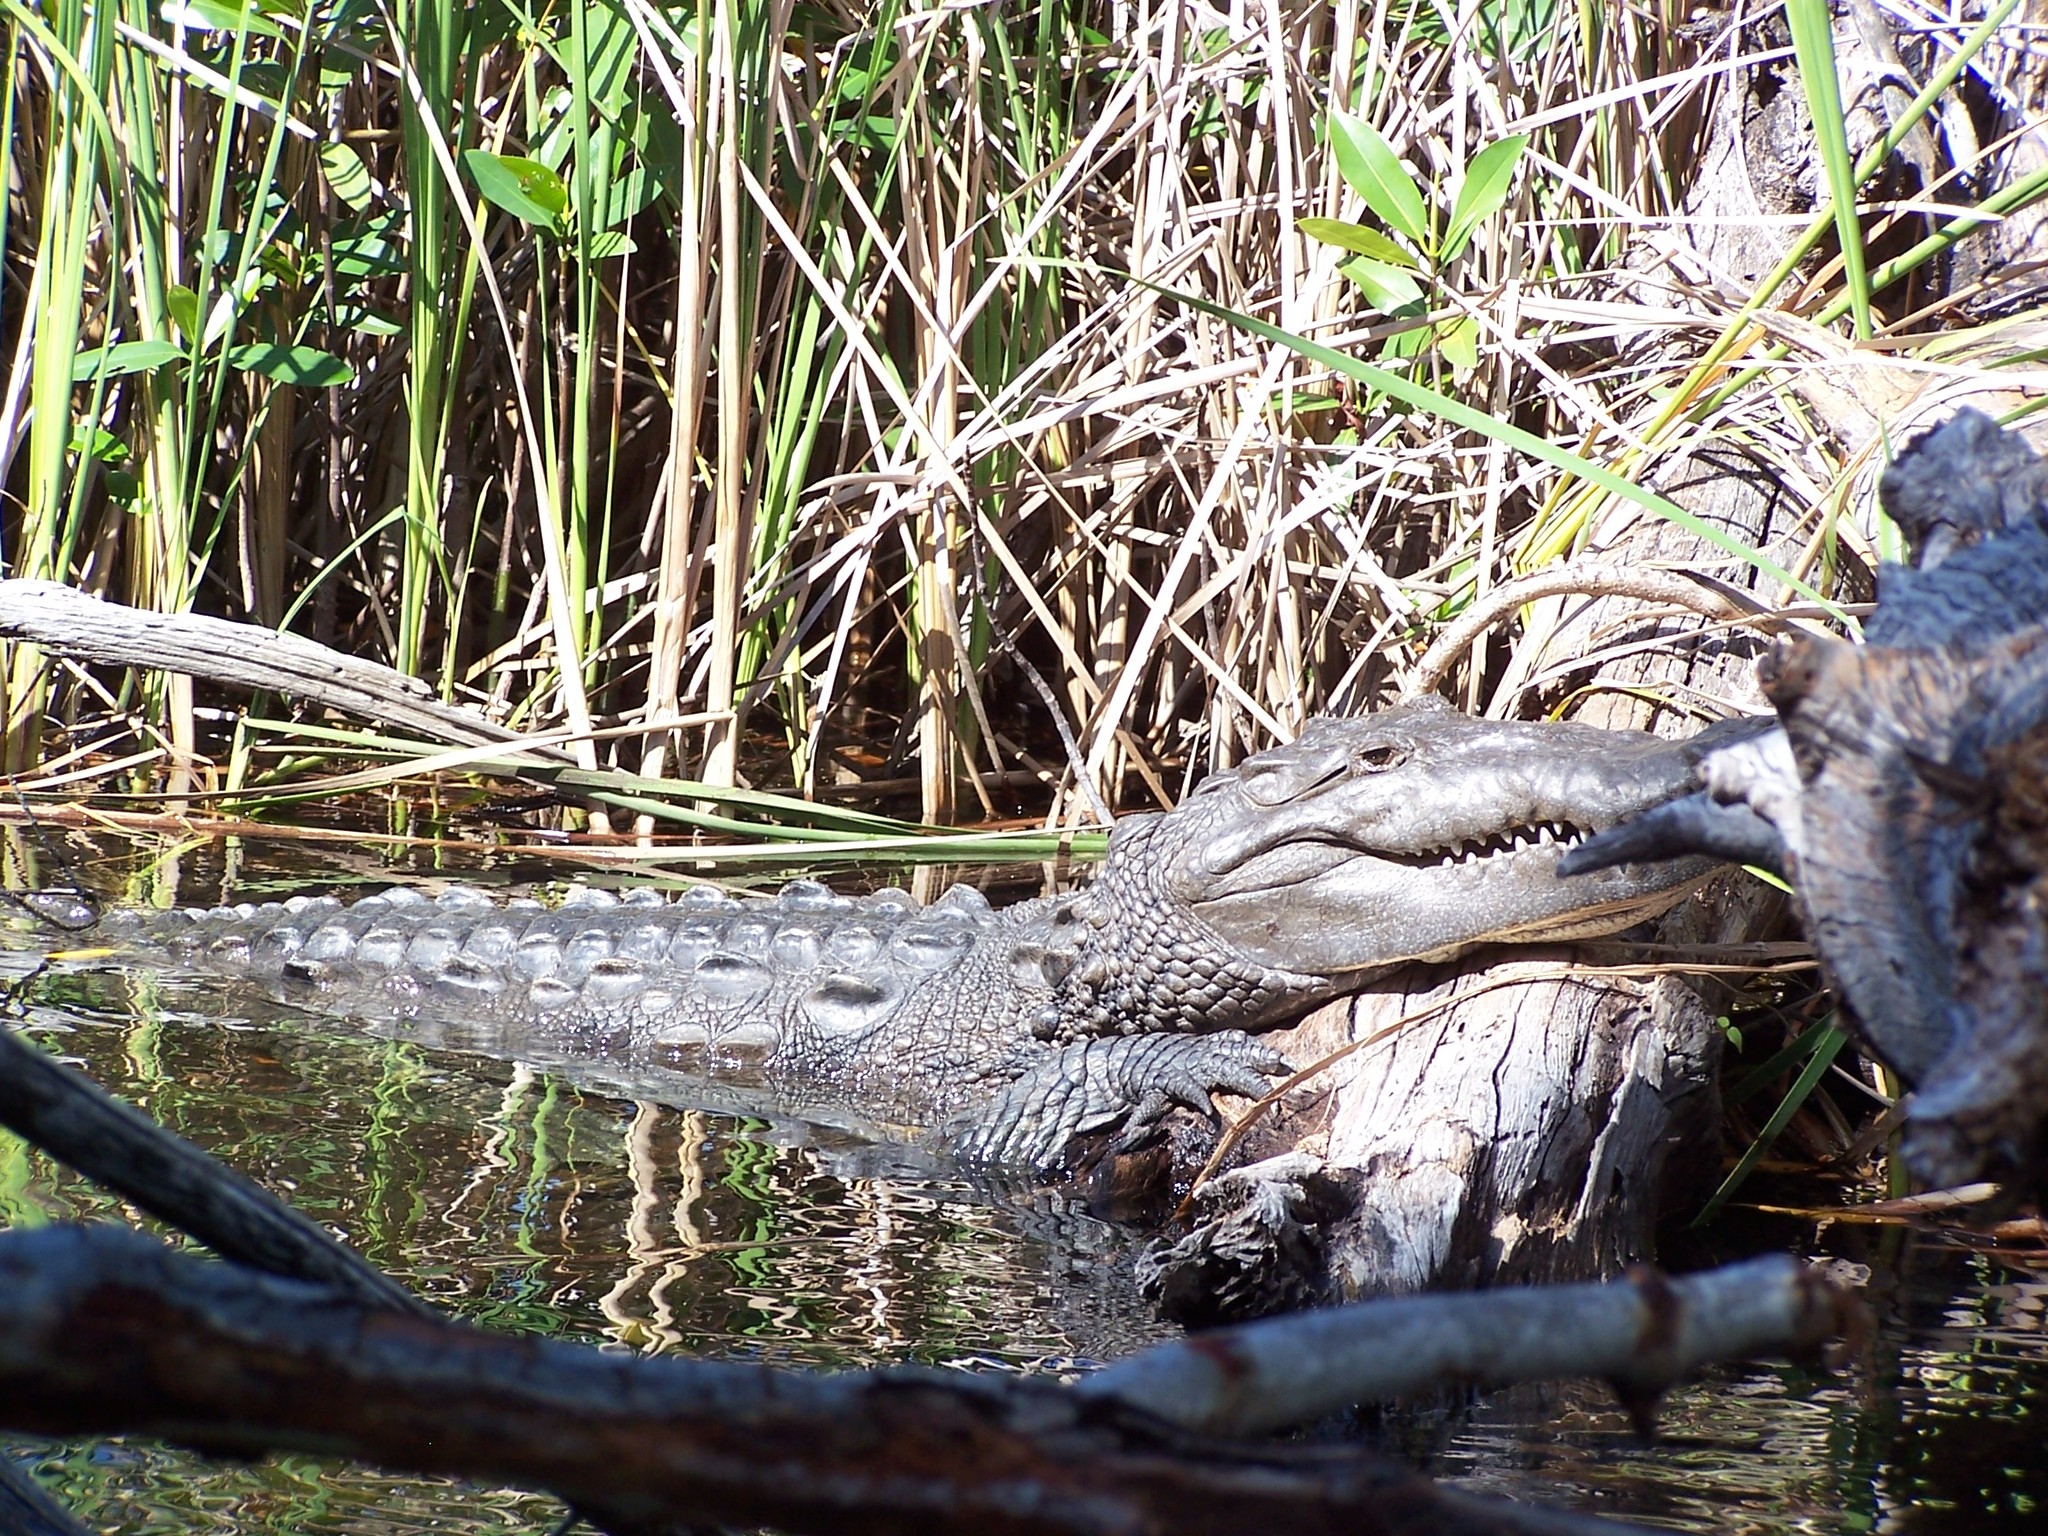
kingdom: Animalia
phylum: Chordata
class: Crocodylia
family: Crocodylidae
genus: Crocodylus
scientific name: Crocodylus acutus
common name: American crocodile
